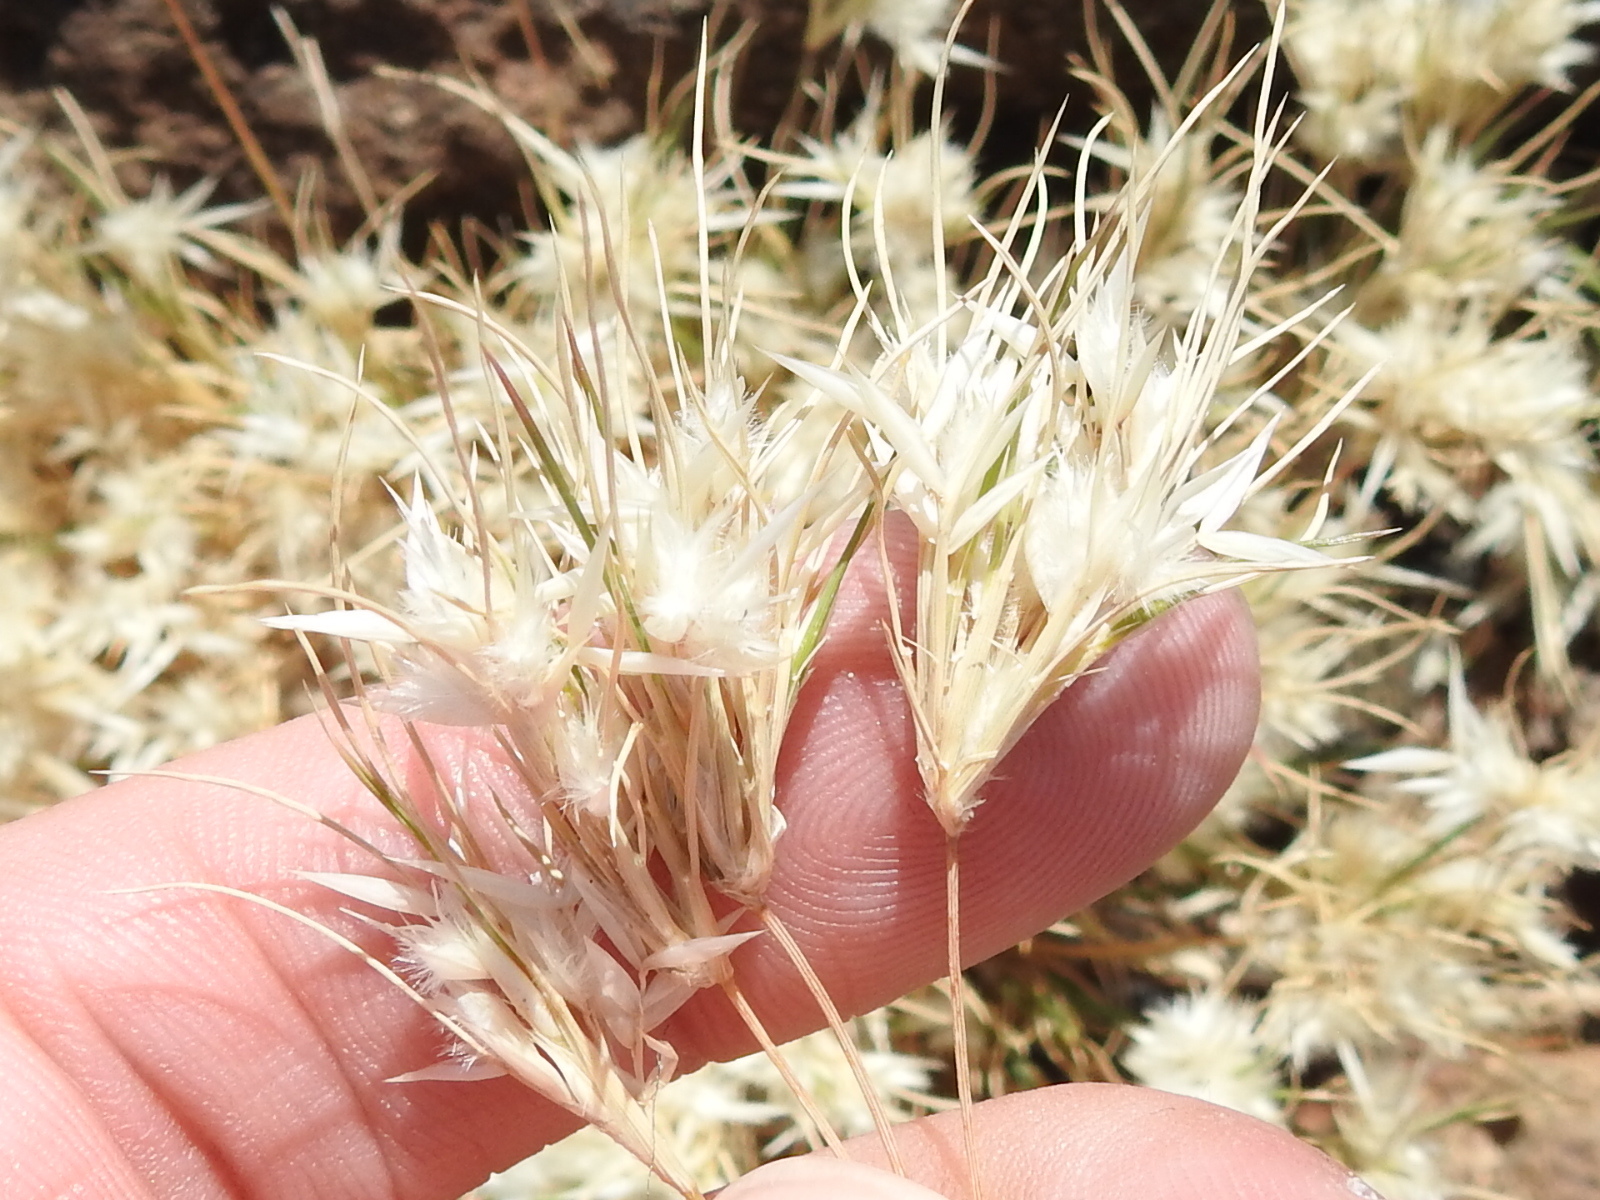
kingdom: Plantae
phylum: Tracheophyta
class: Liliopsida
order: Poales
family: Poaceae
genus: Dasyochloa
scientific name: Dasyochloa pulchella
